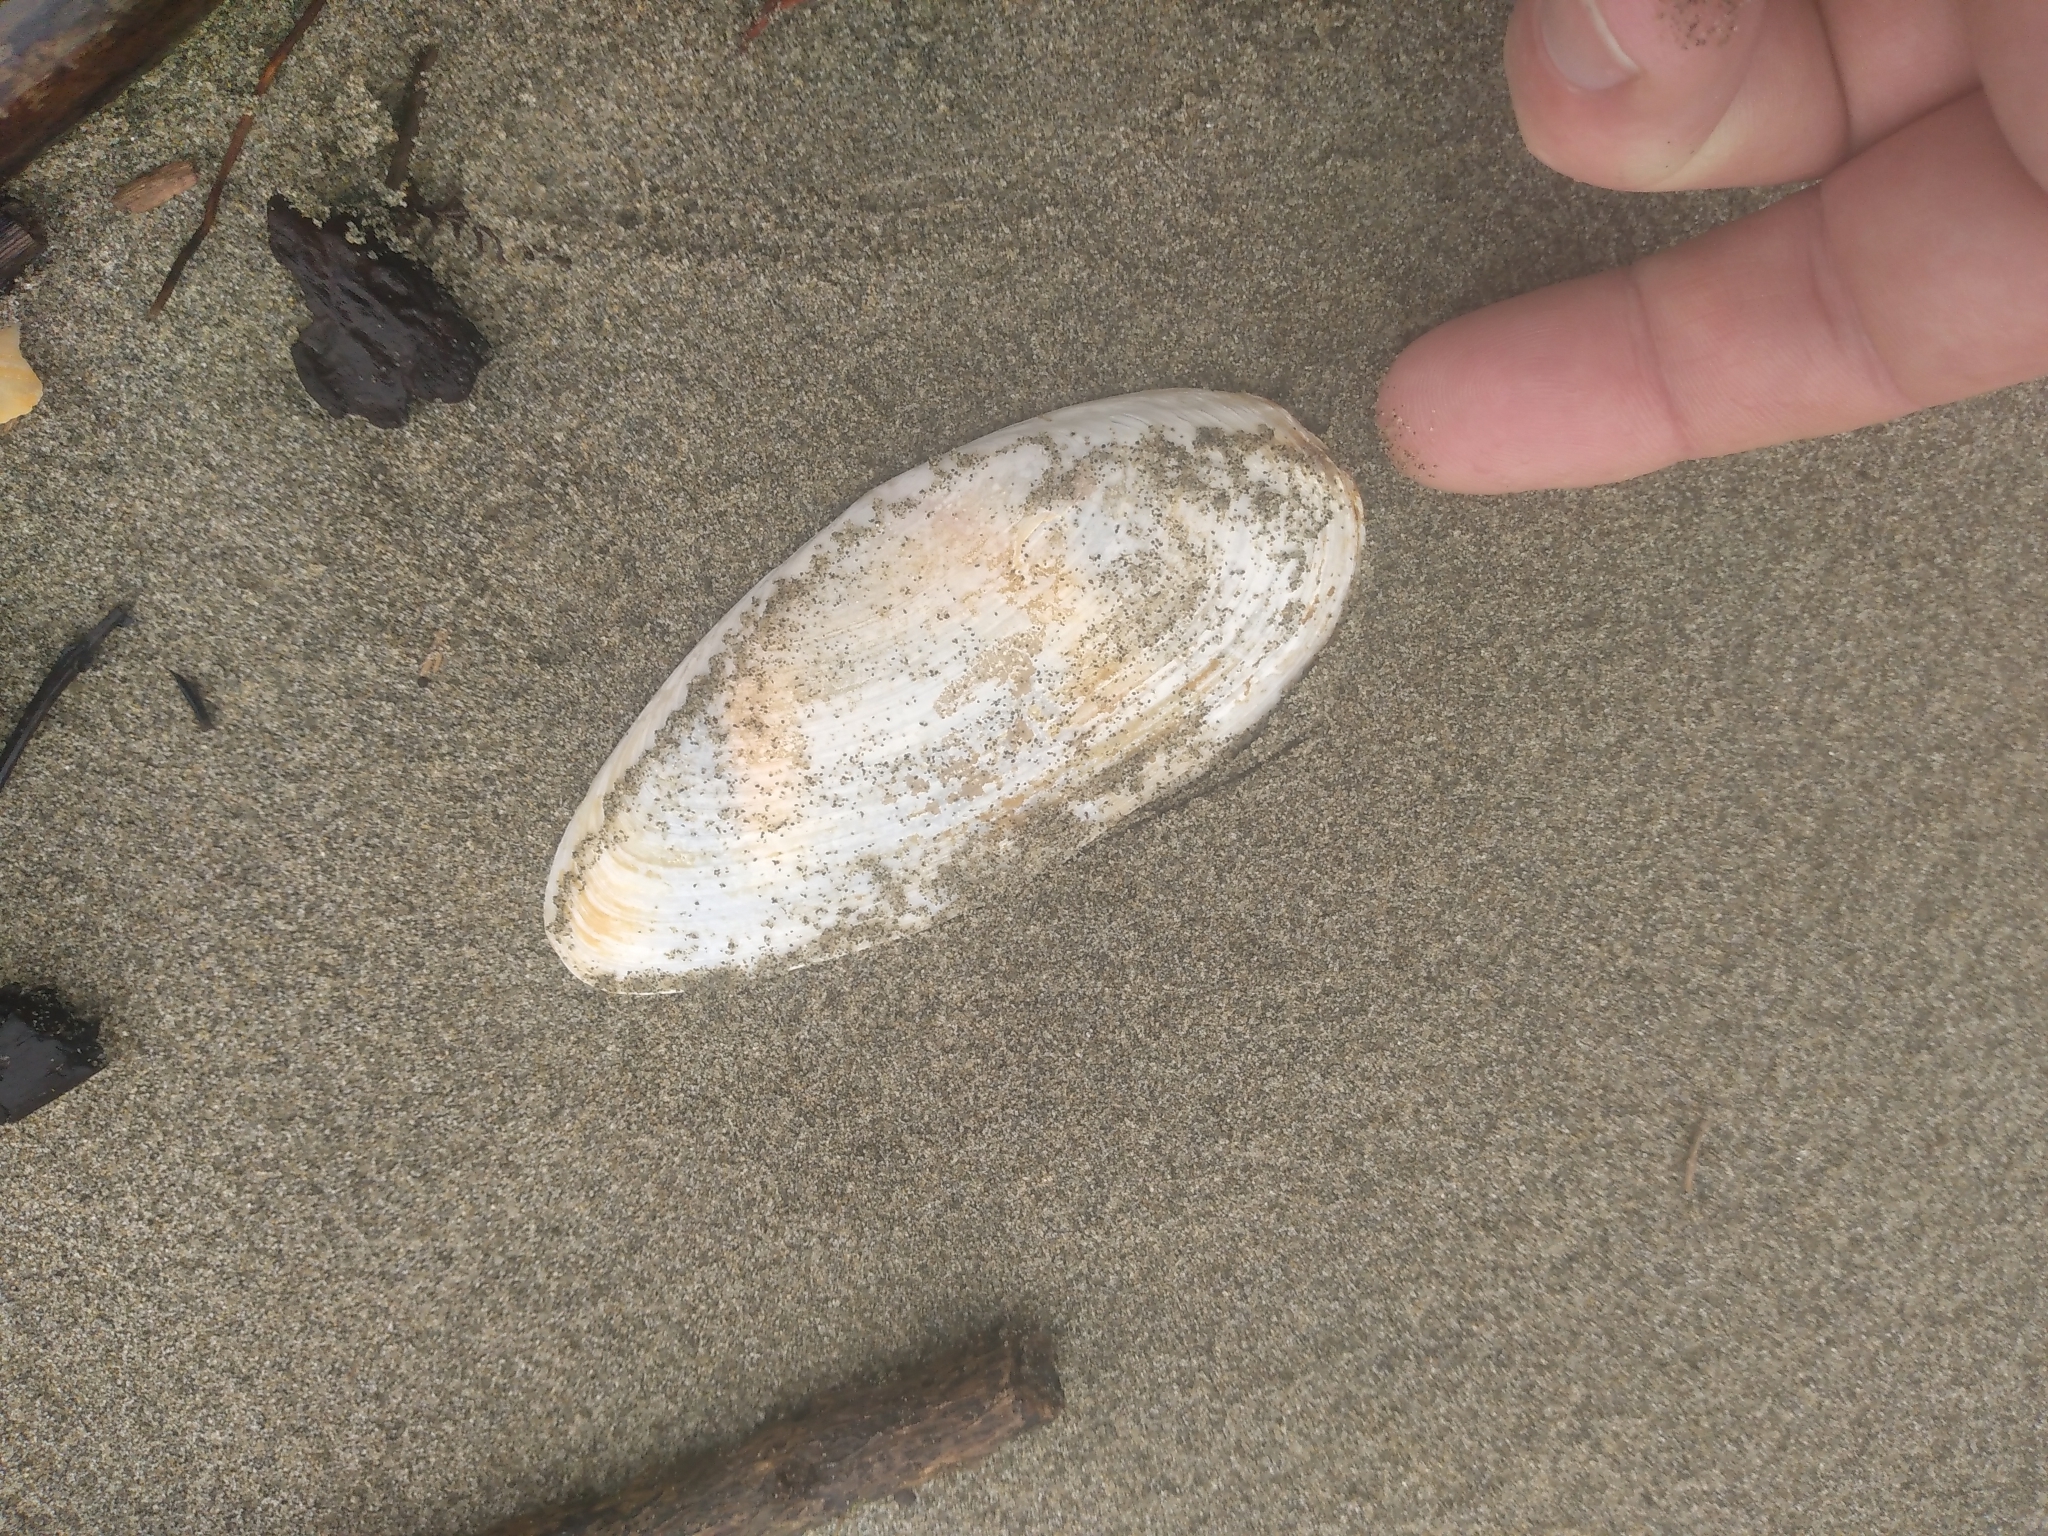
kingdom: Animalia
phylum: Mollusca
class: Bivalvia
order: Venerida
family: Mactridae
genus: Resania
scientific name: Resania lanceolata
